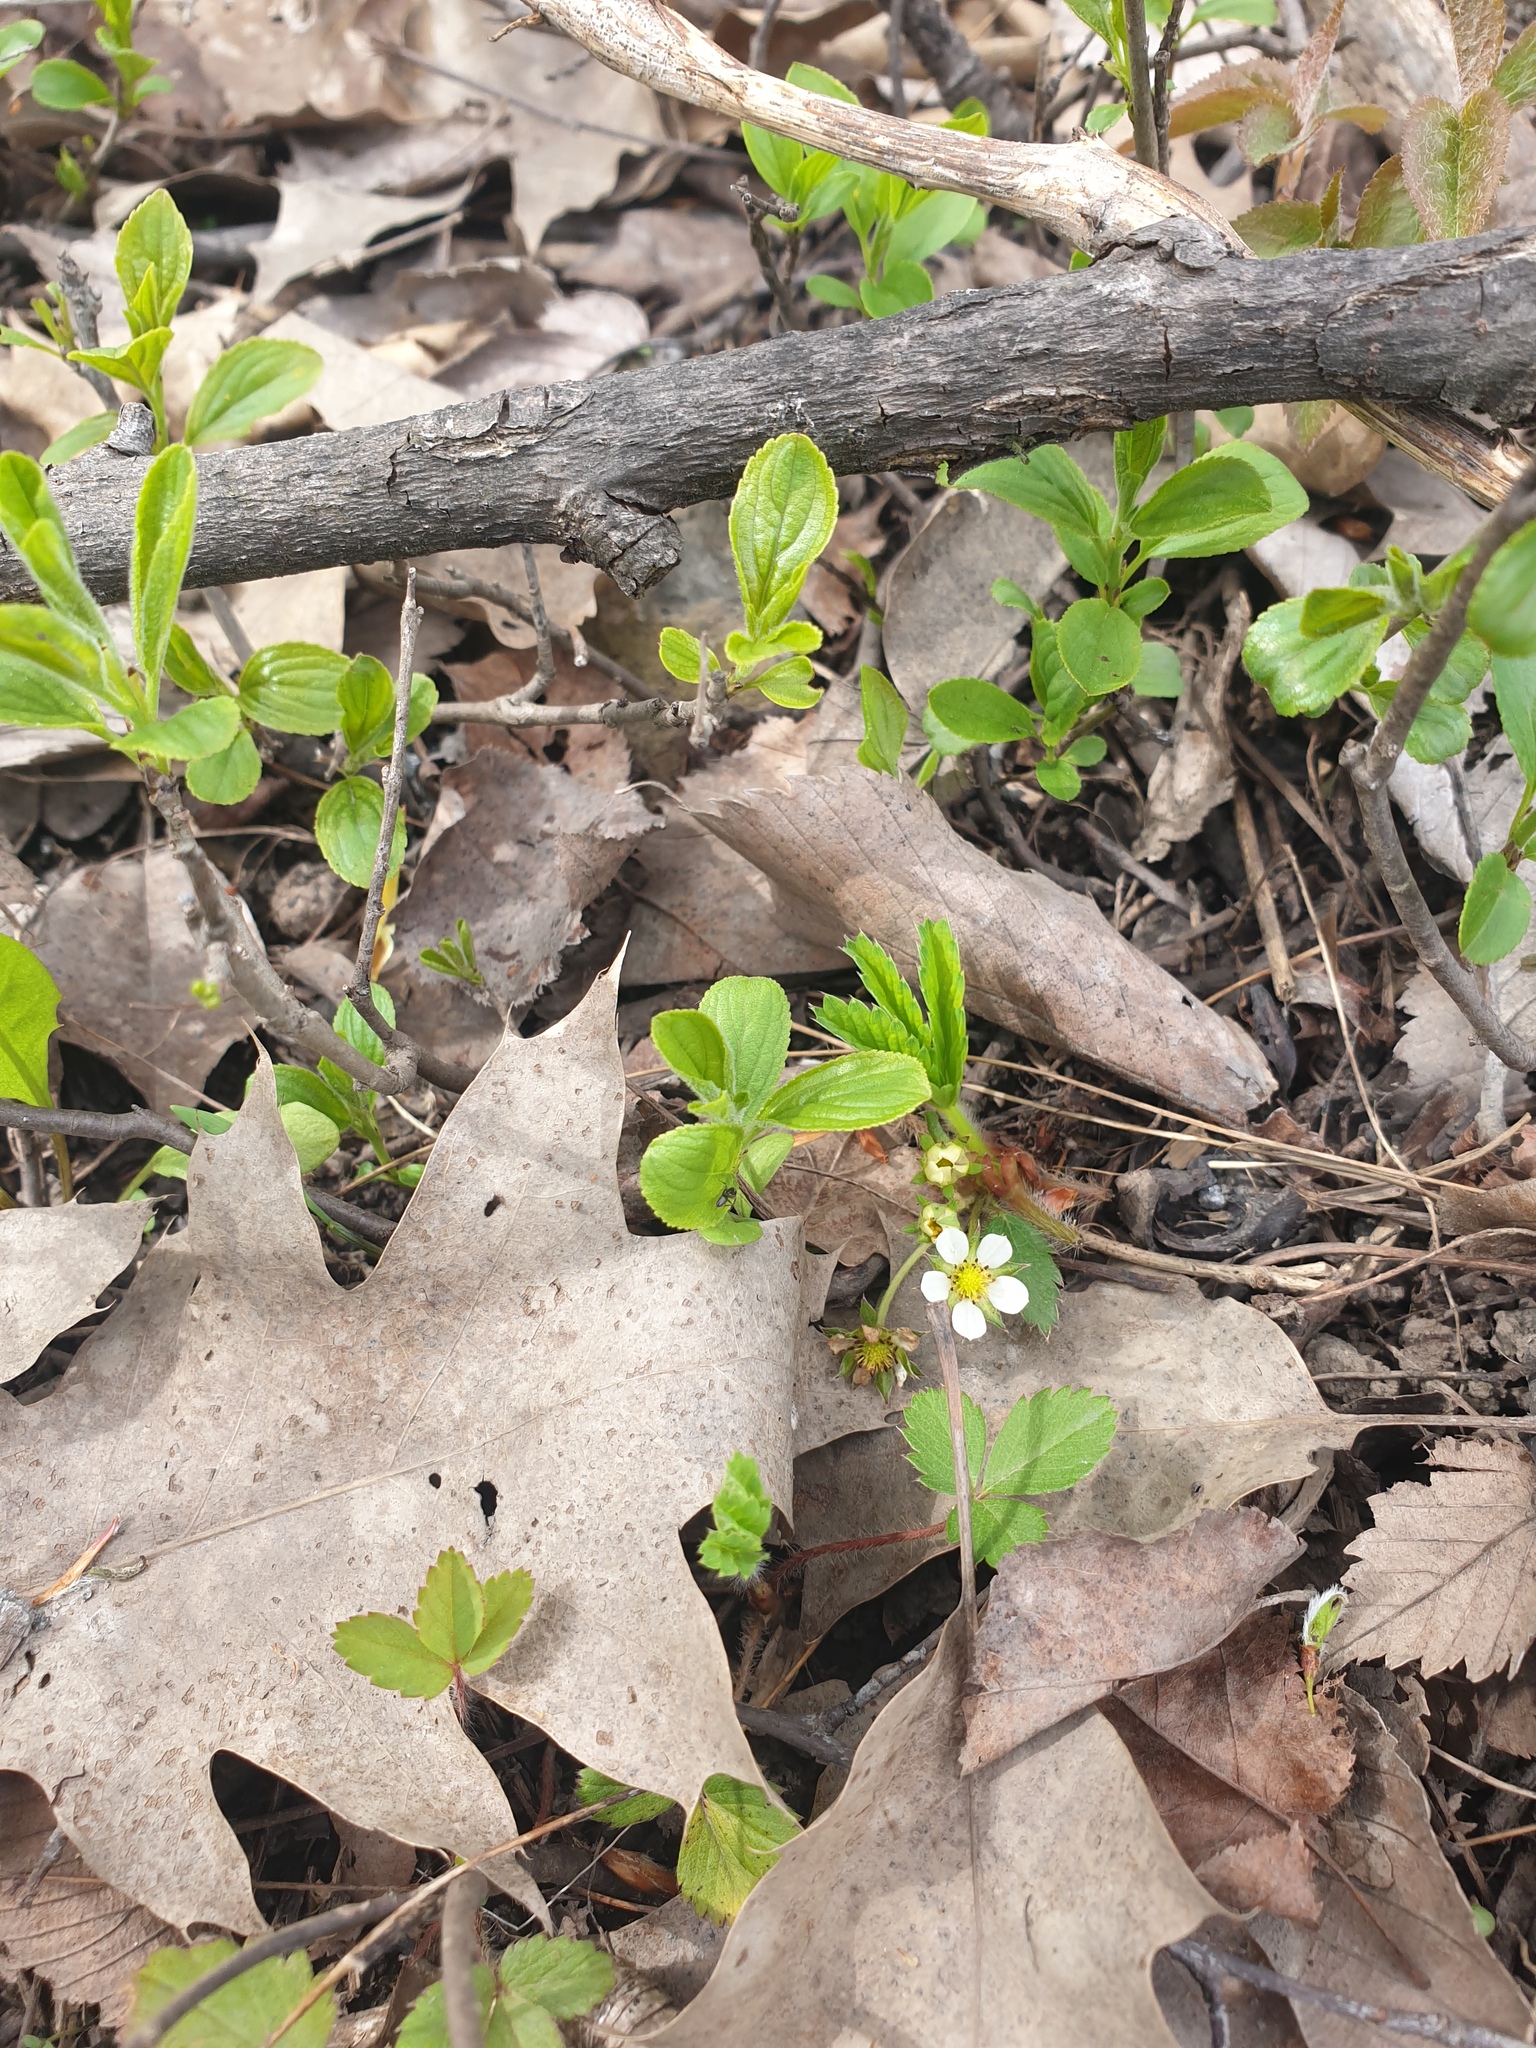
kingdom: Plantae
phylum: Tracheophyta
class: Magnoliopsida
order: Rosales
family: Rosaceae
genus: Fragaria
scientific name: Fragaria virginiana
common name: Thickleaved wild strawberry
